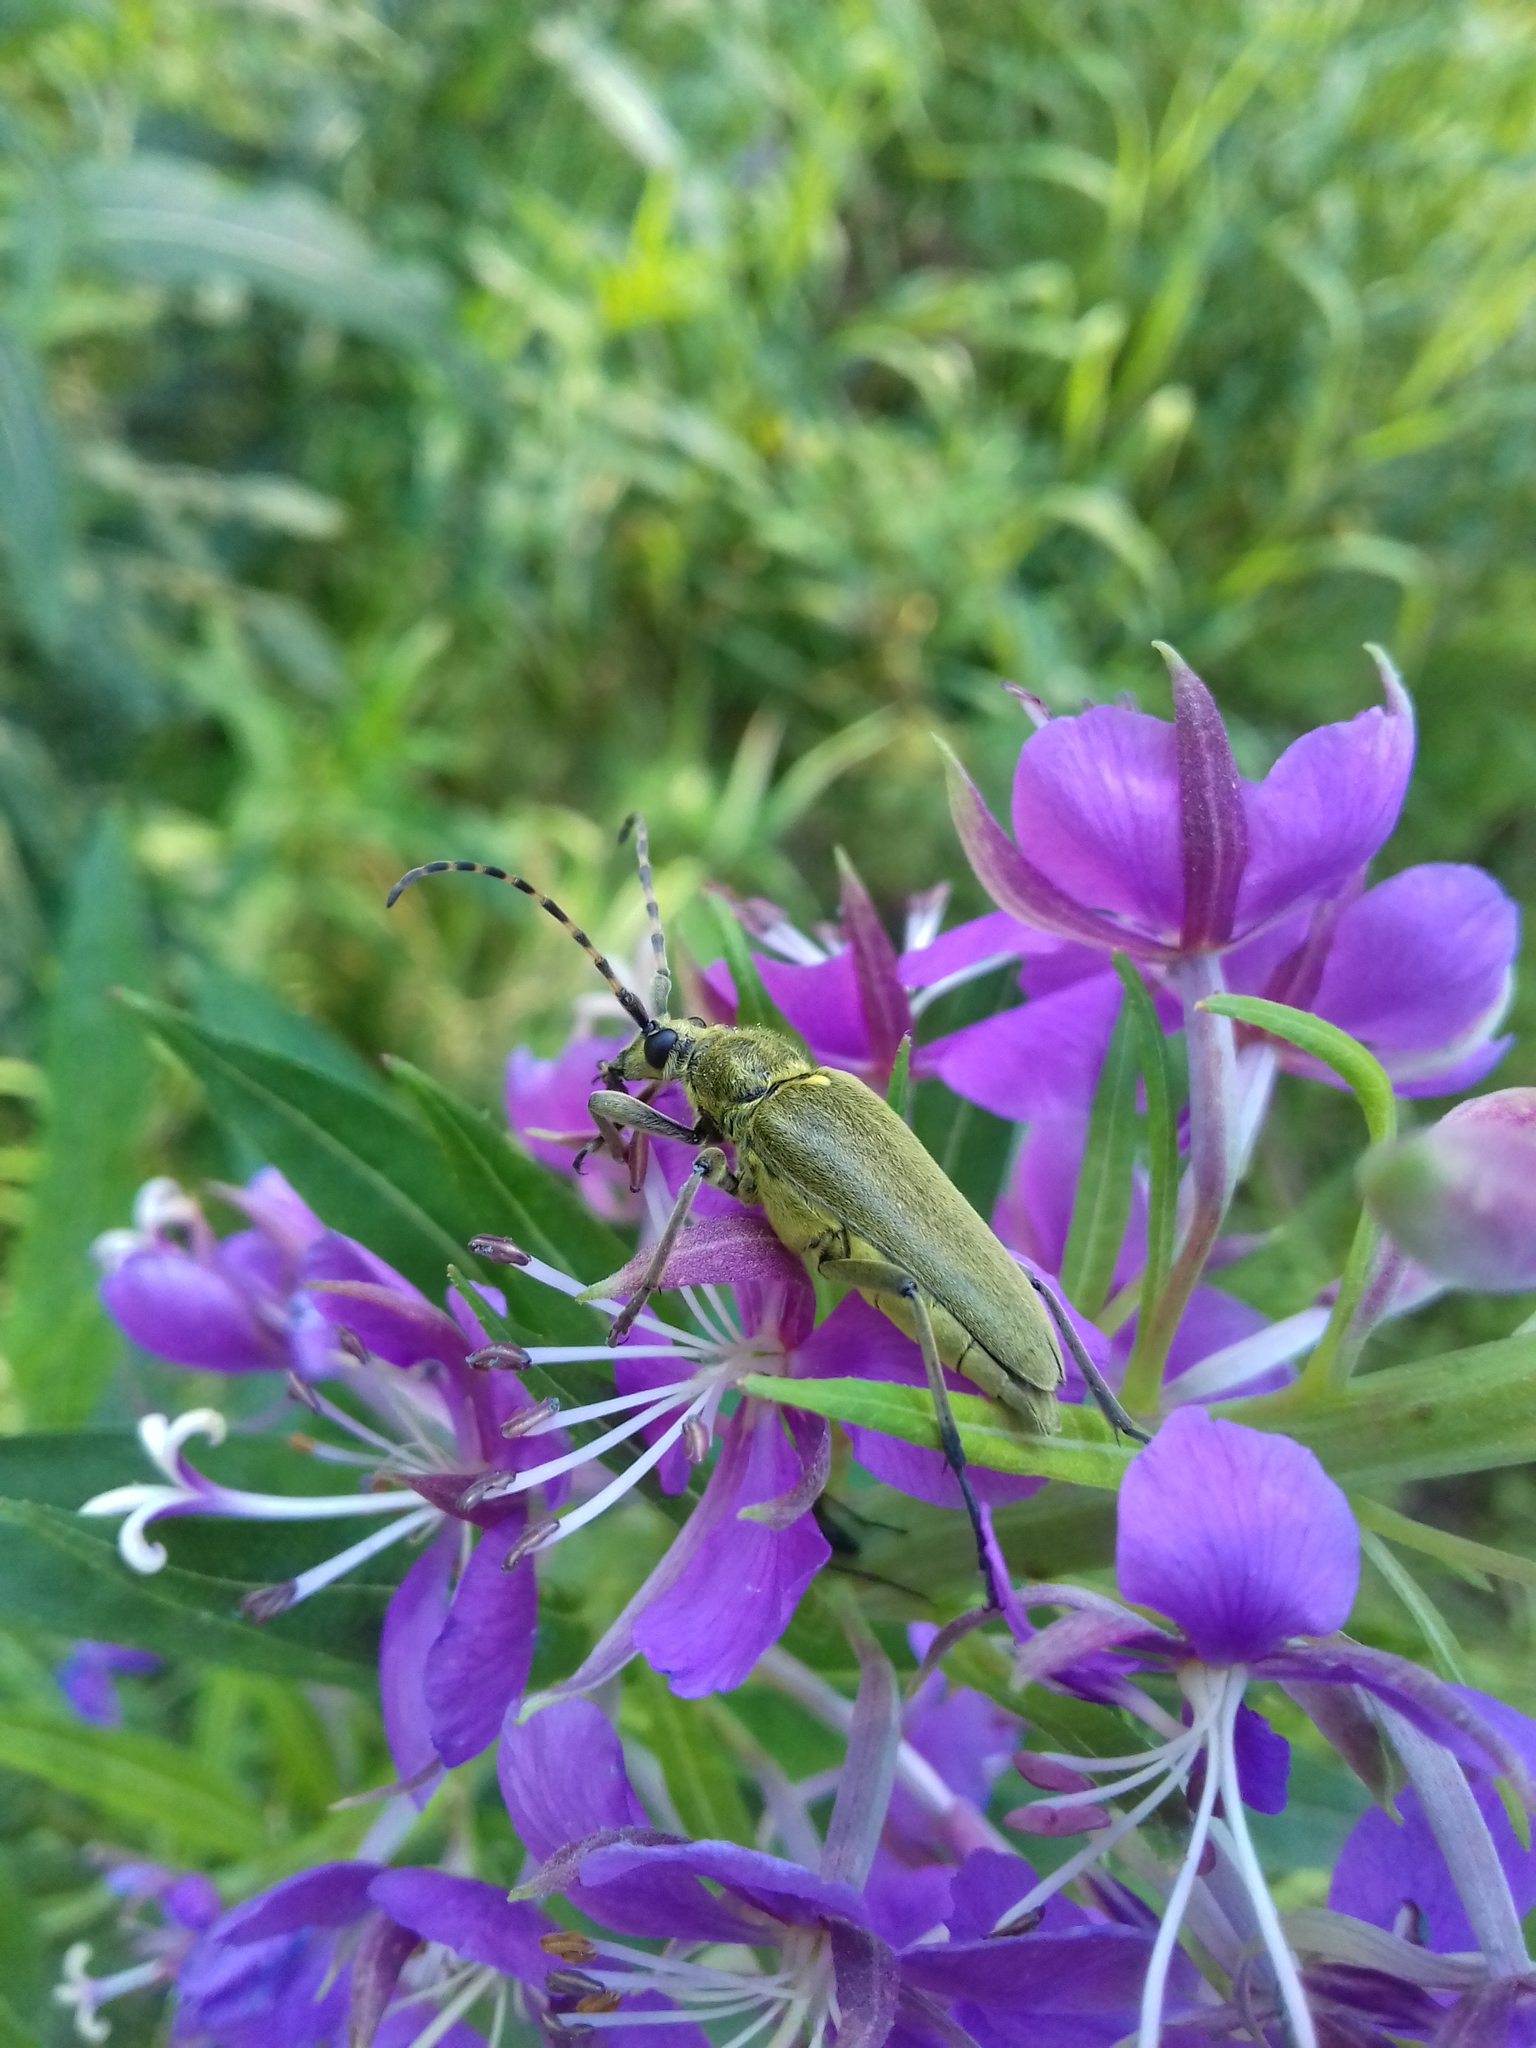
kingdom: Animalia
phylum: Arthropoda
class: Insecta
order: Coleoptera
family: Cerambycidae
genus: Lepturobosca
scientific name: Lepturobosca virens
